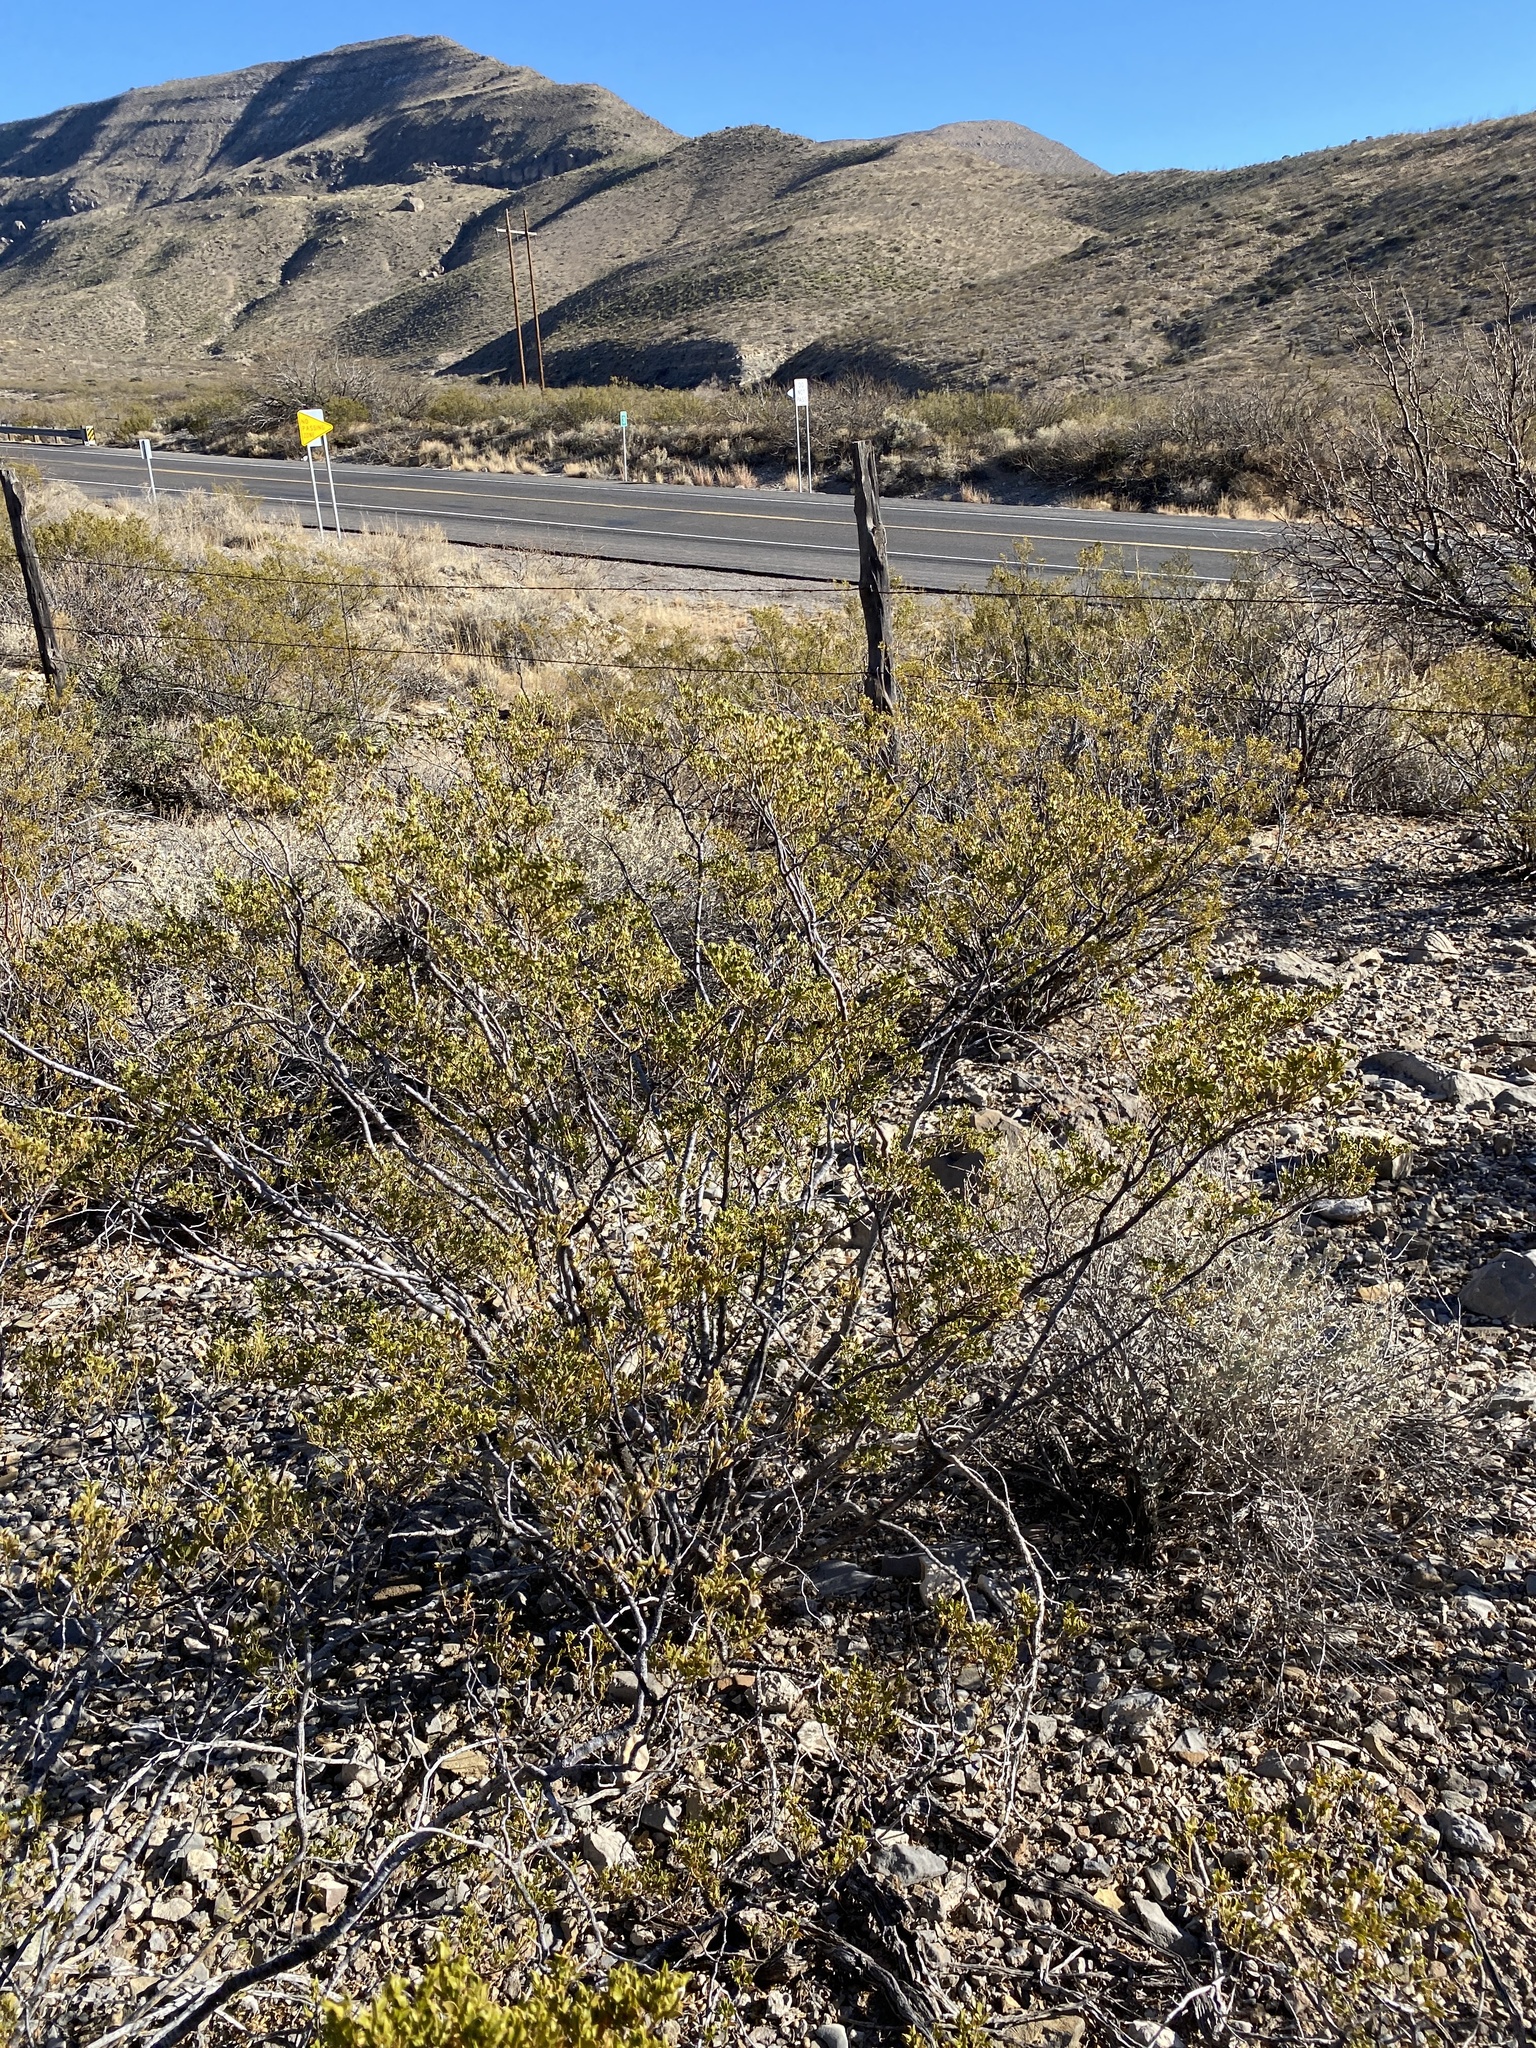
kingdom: Plantae
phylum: Tracheophyta
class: Magnoliopsida
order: Zygophyllales
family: Zygophyllaceae
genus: Larrea
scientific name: Larrea tridentata
